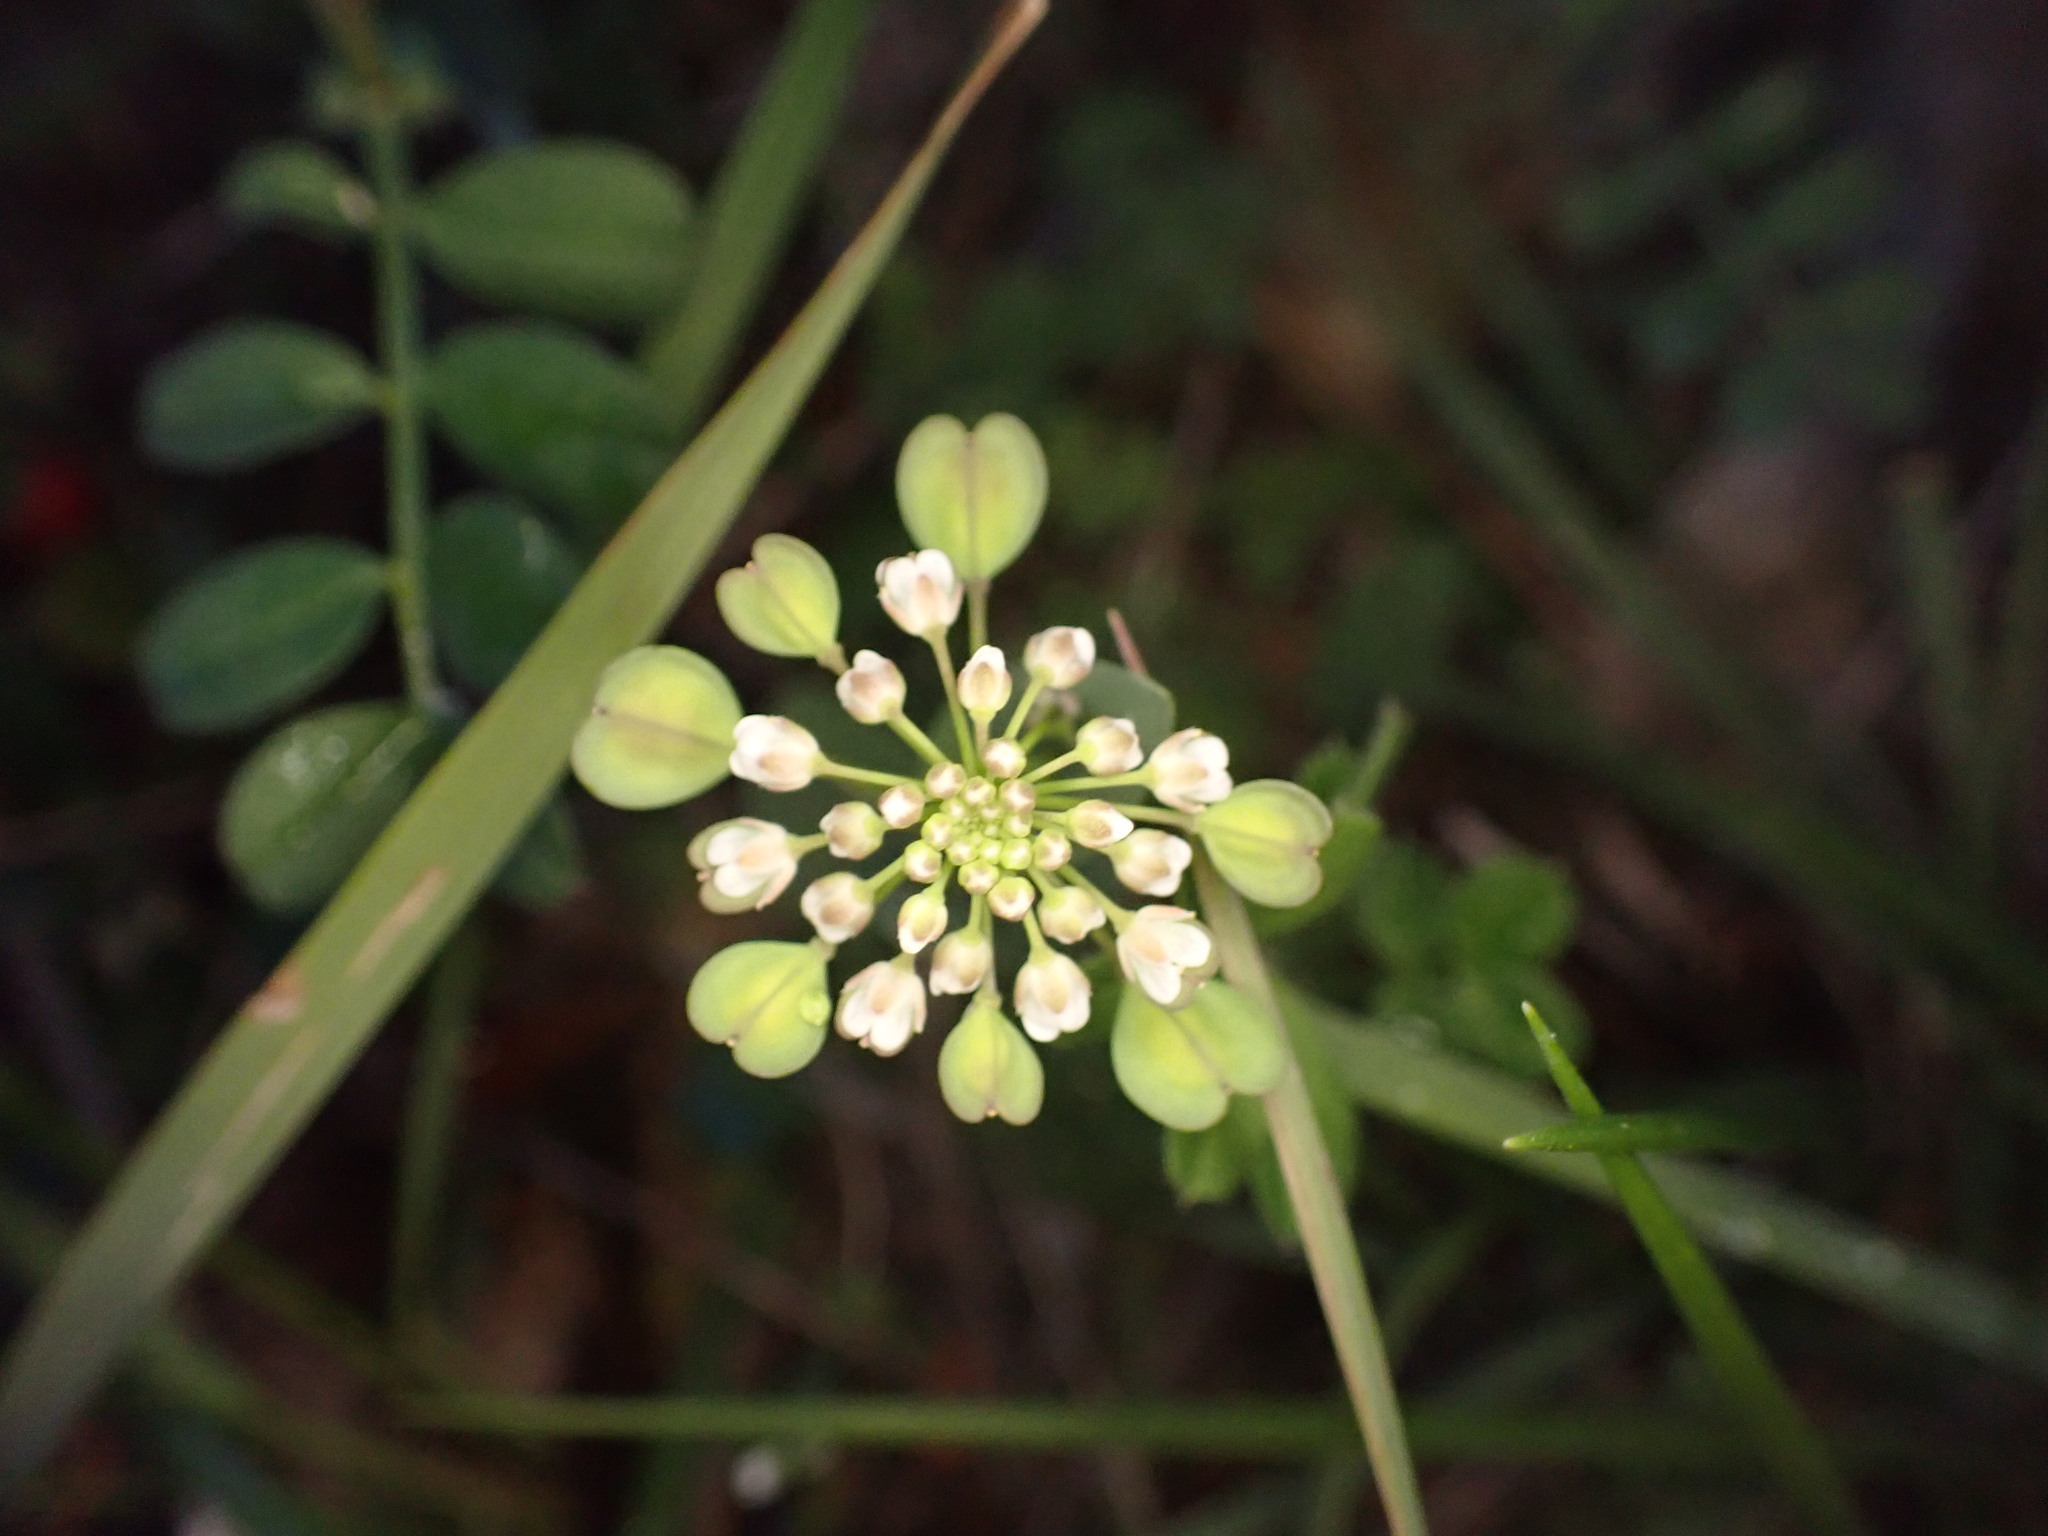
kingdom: Plantae
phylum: Tracheophyta
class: Magnoliopsida
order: Brassicales
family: Brassicaceae
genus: Noccaea
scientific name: Noccaea perfoliata
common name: Perfoliate pennycress
